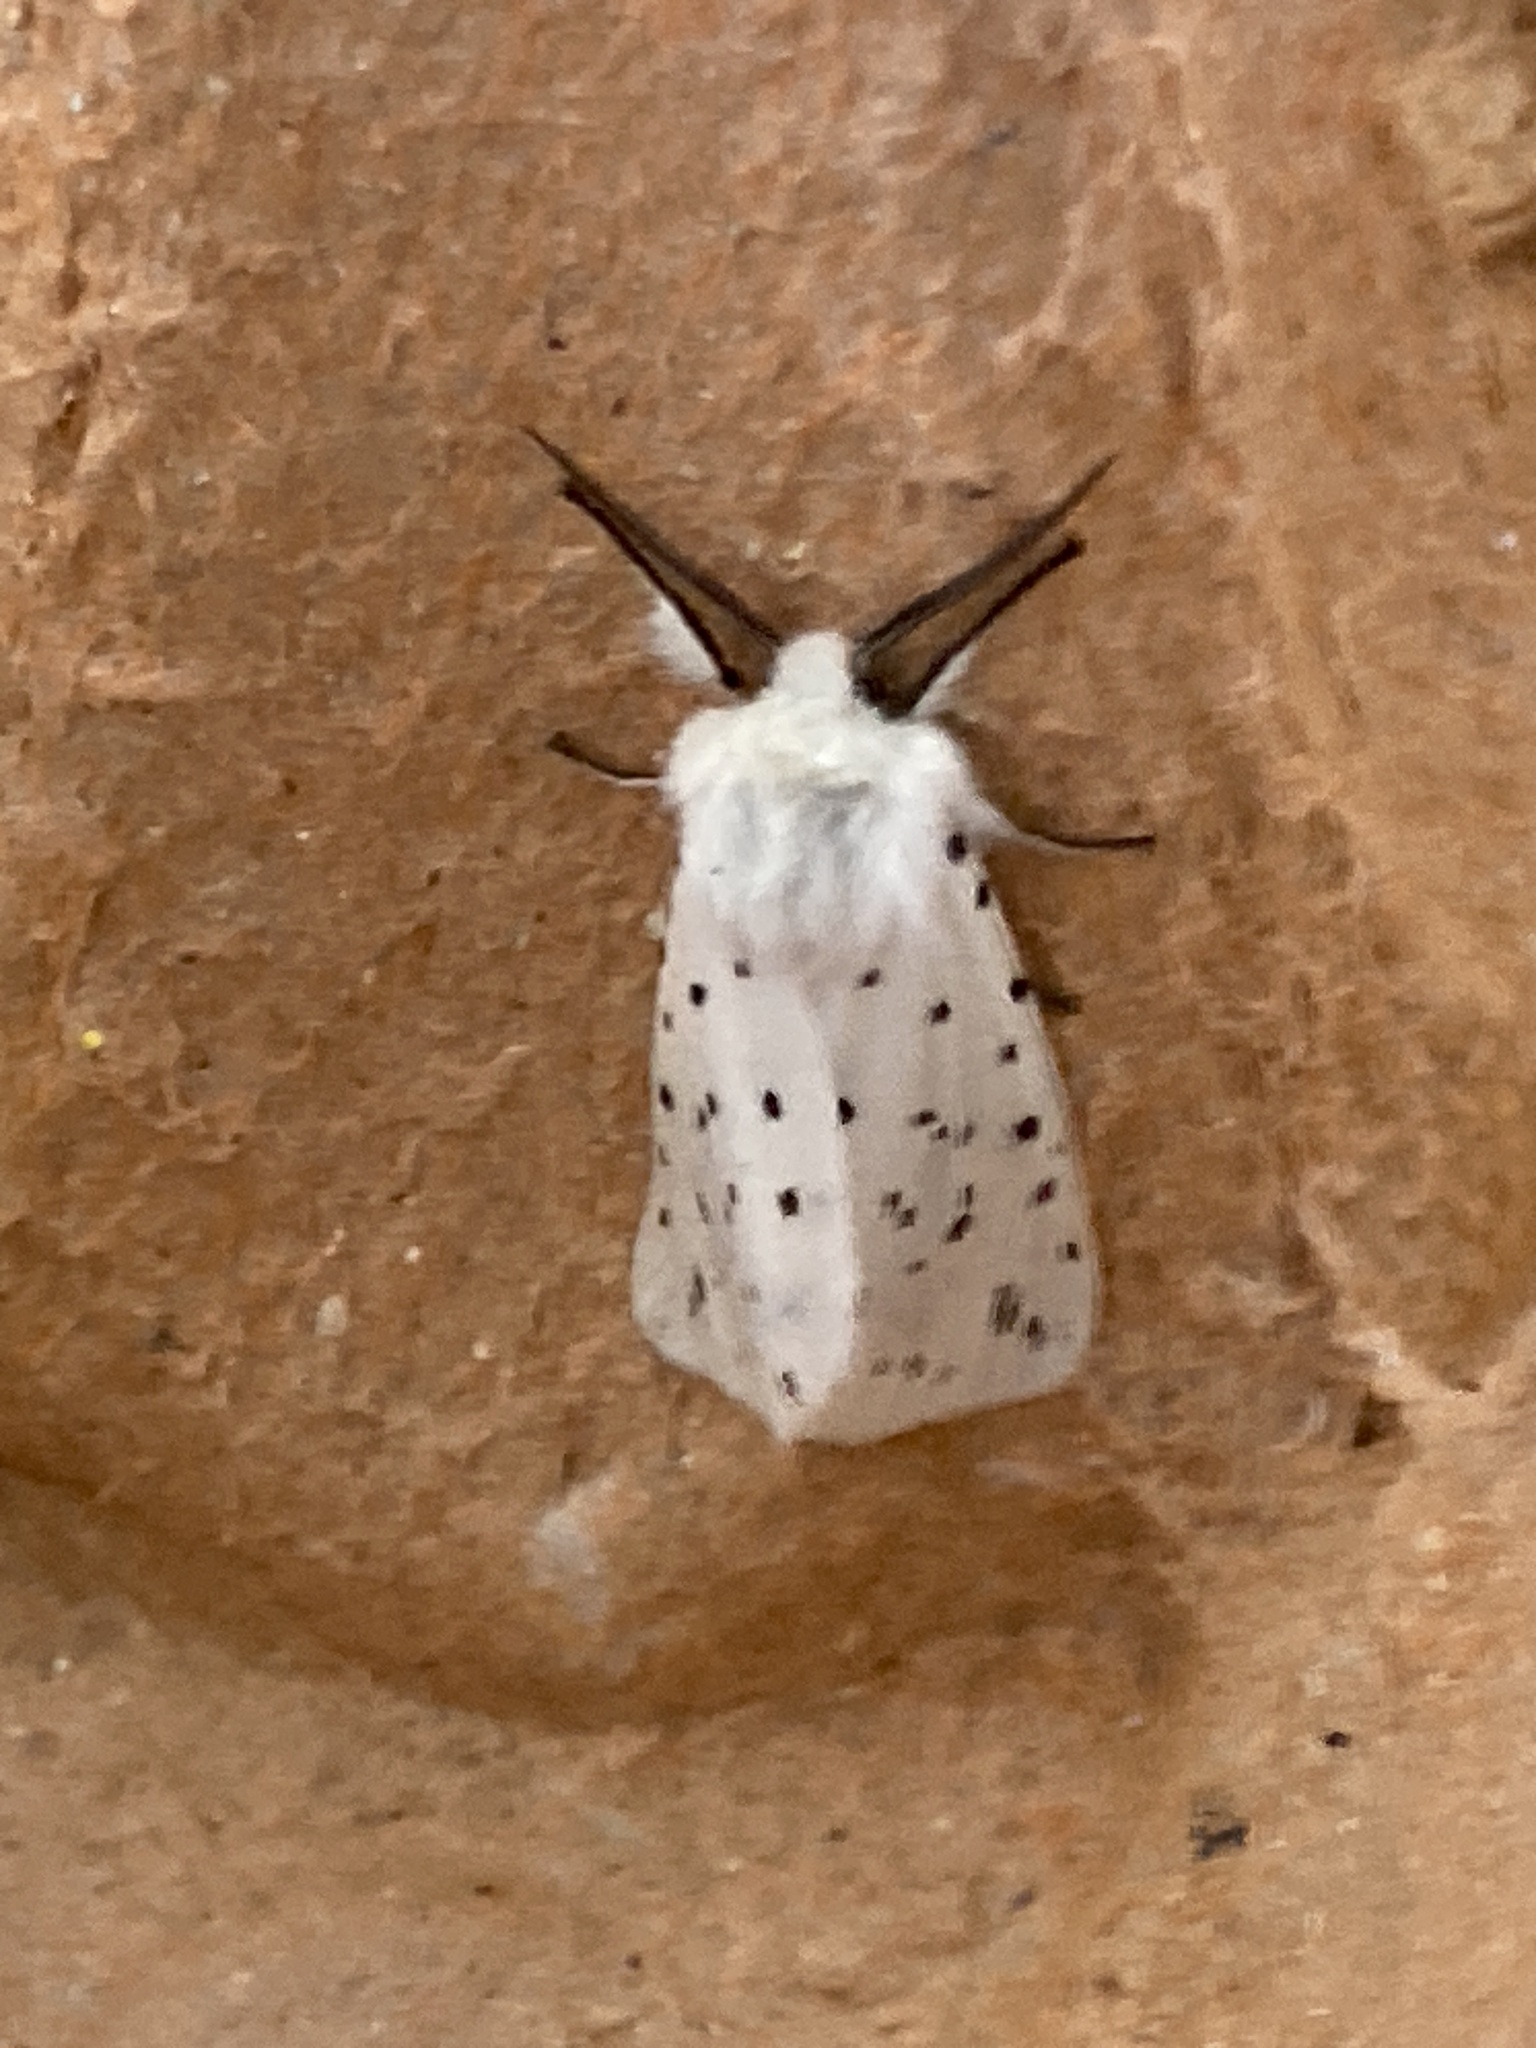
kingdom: Animalia
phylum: Arthropoda
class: Insecta
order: Lepidoptera
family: Erebidae
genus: Spilosoma
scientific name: Spilosoma lubricipeda
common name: White ermine
